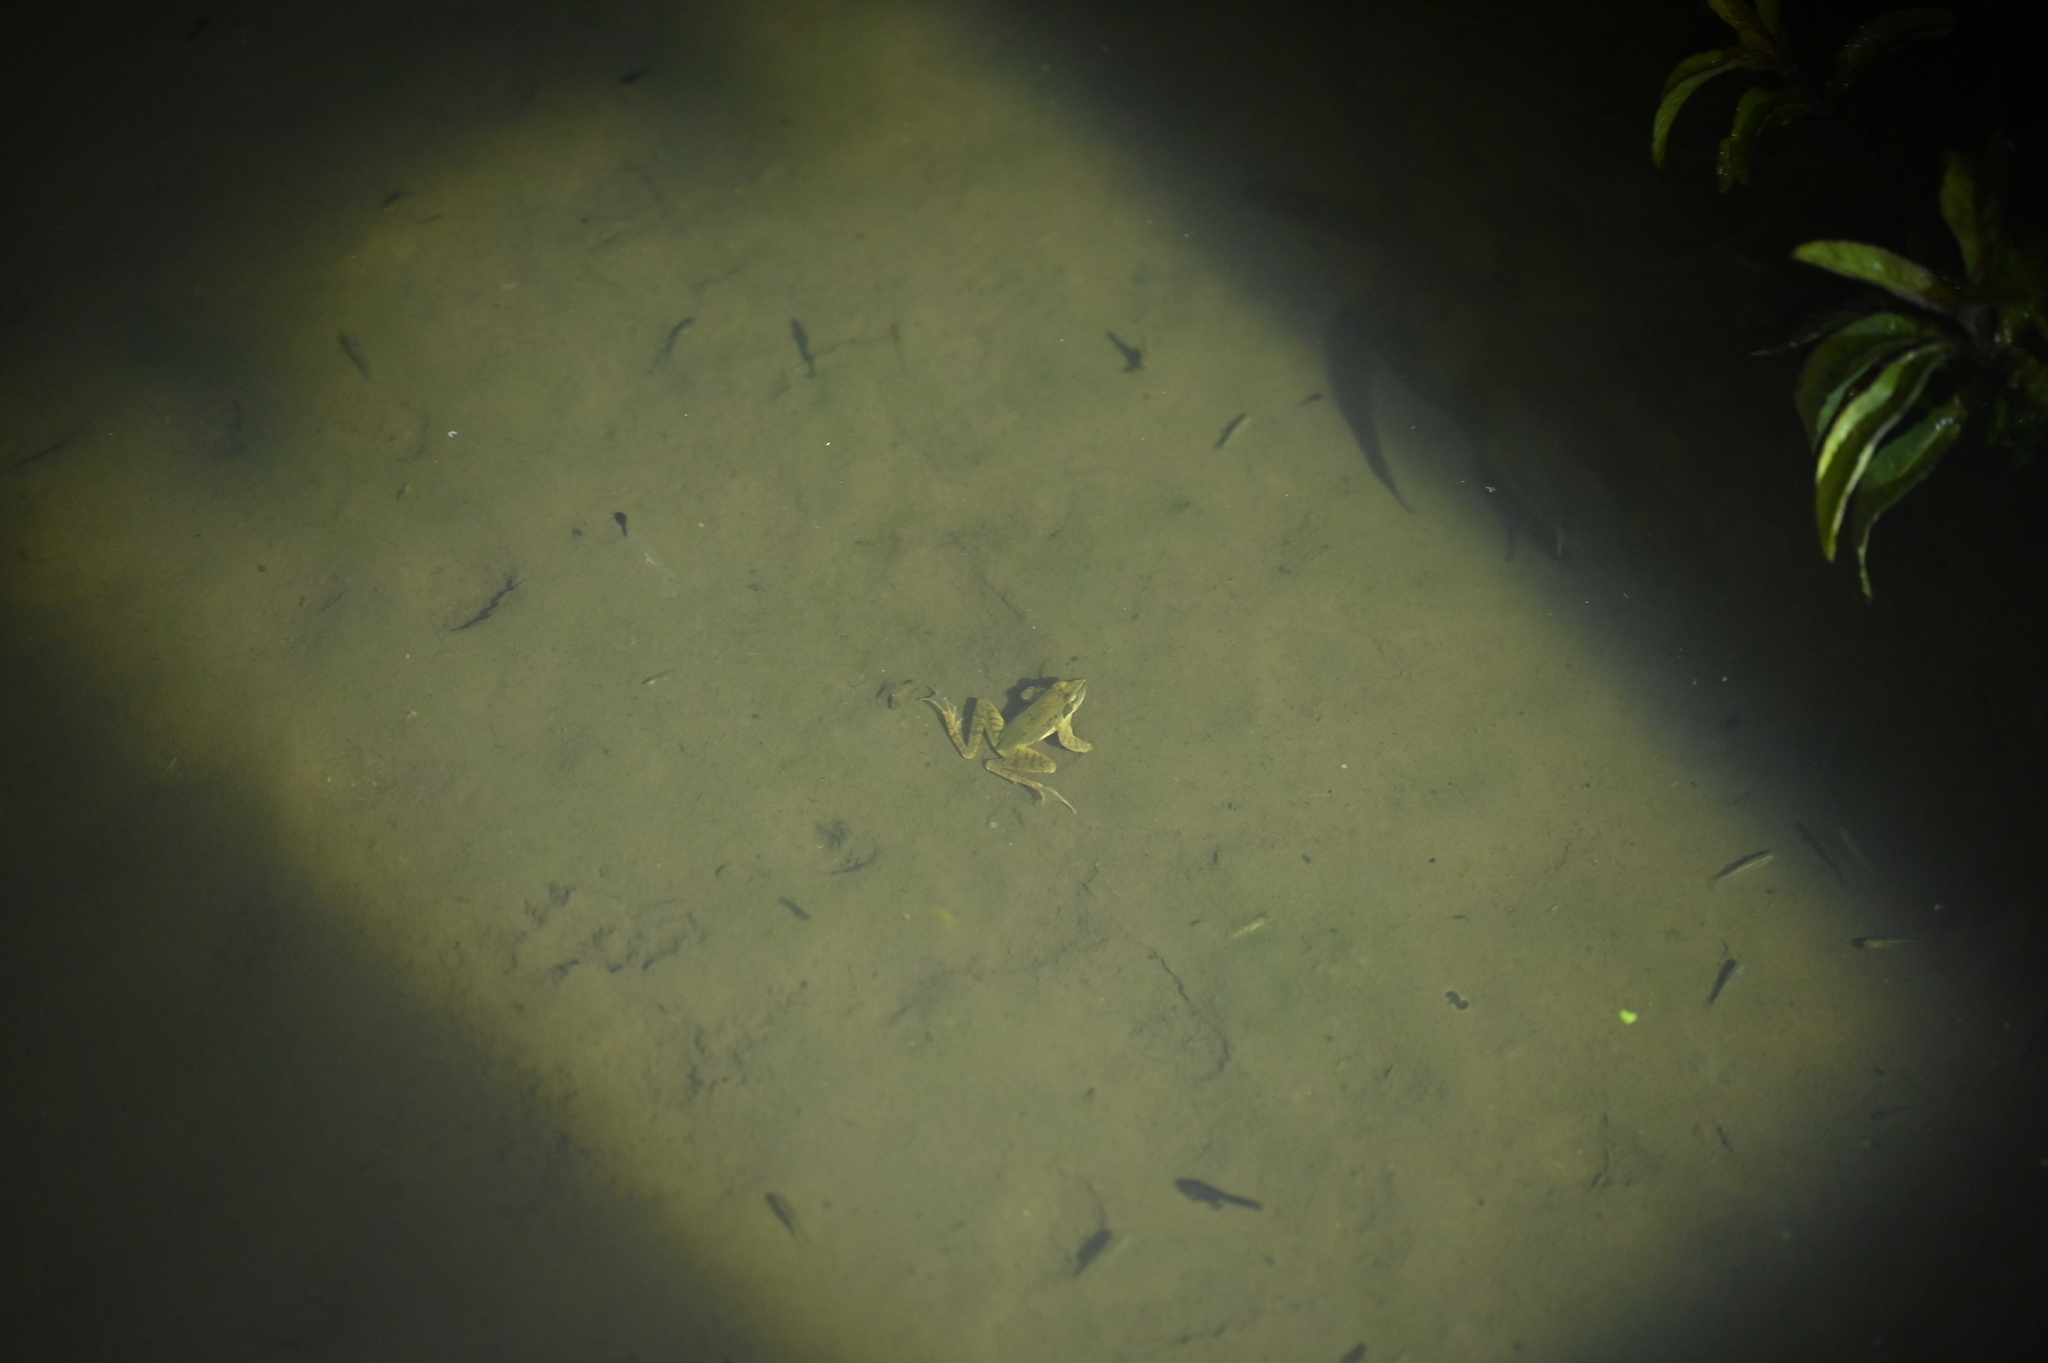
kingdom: Animalia
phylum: Chordata
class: Amphibia
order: Anura
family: Ranidae
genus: Rana
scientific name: Rana longicrus
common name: Long-legged brown frog
